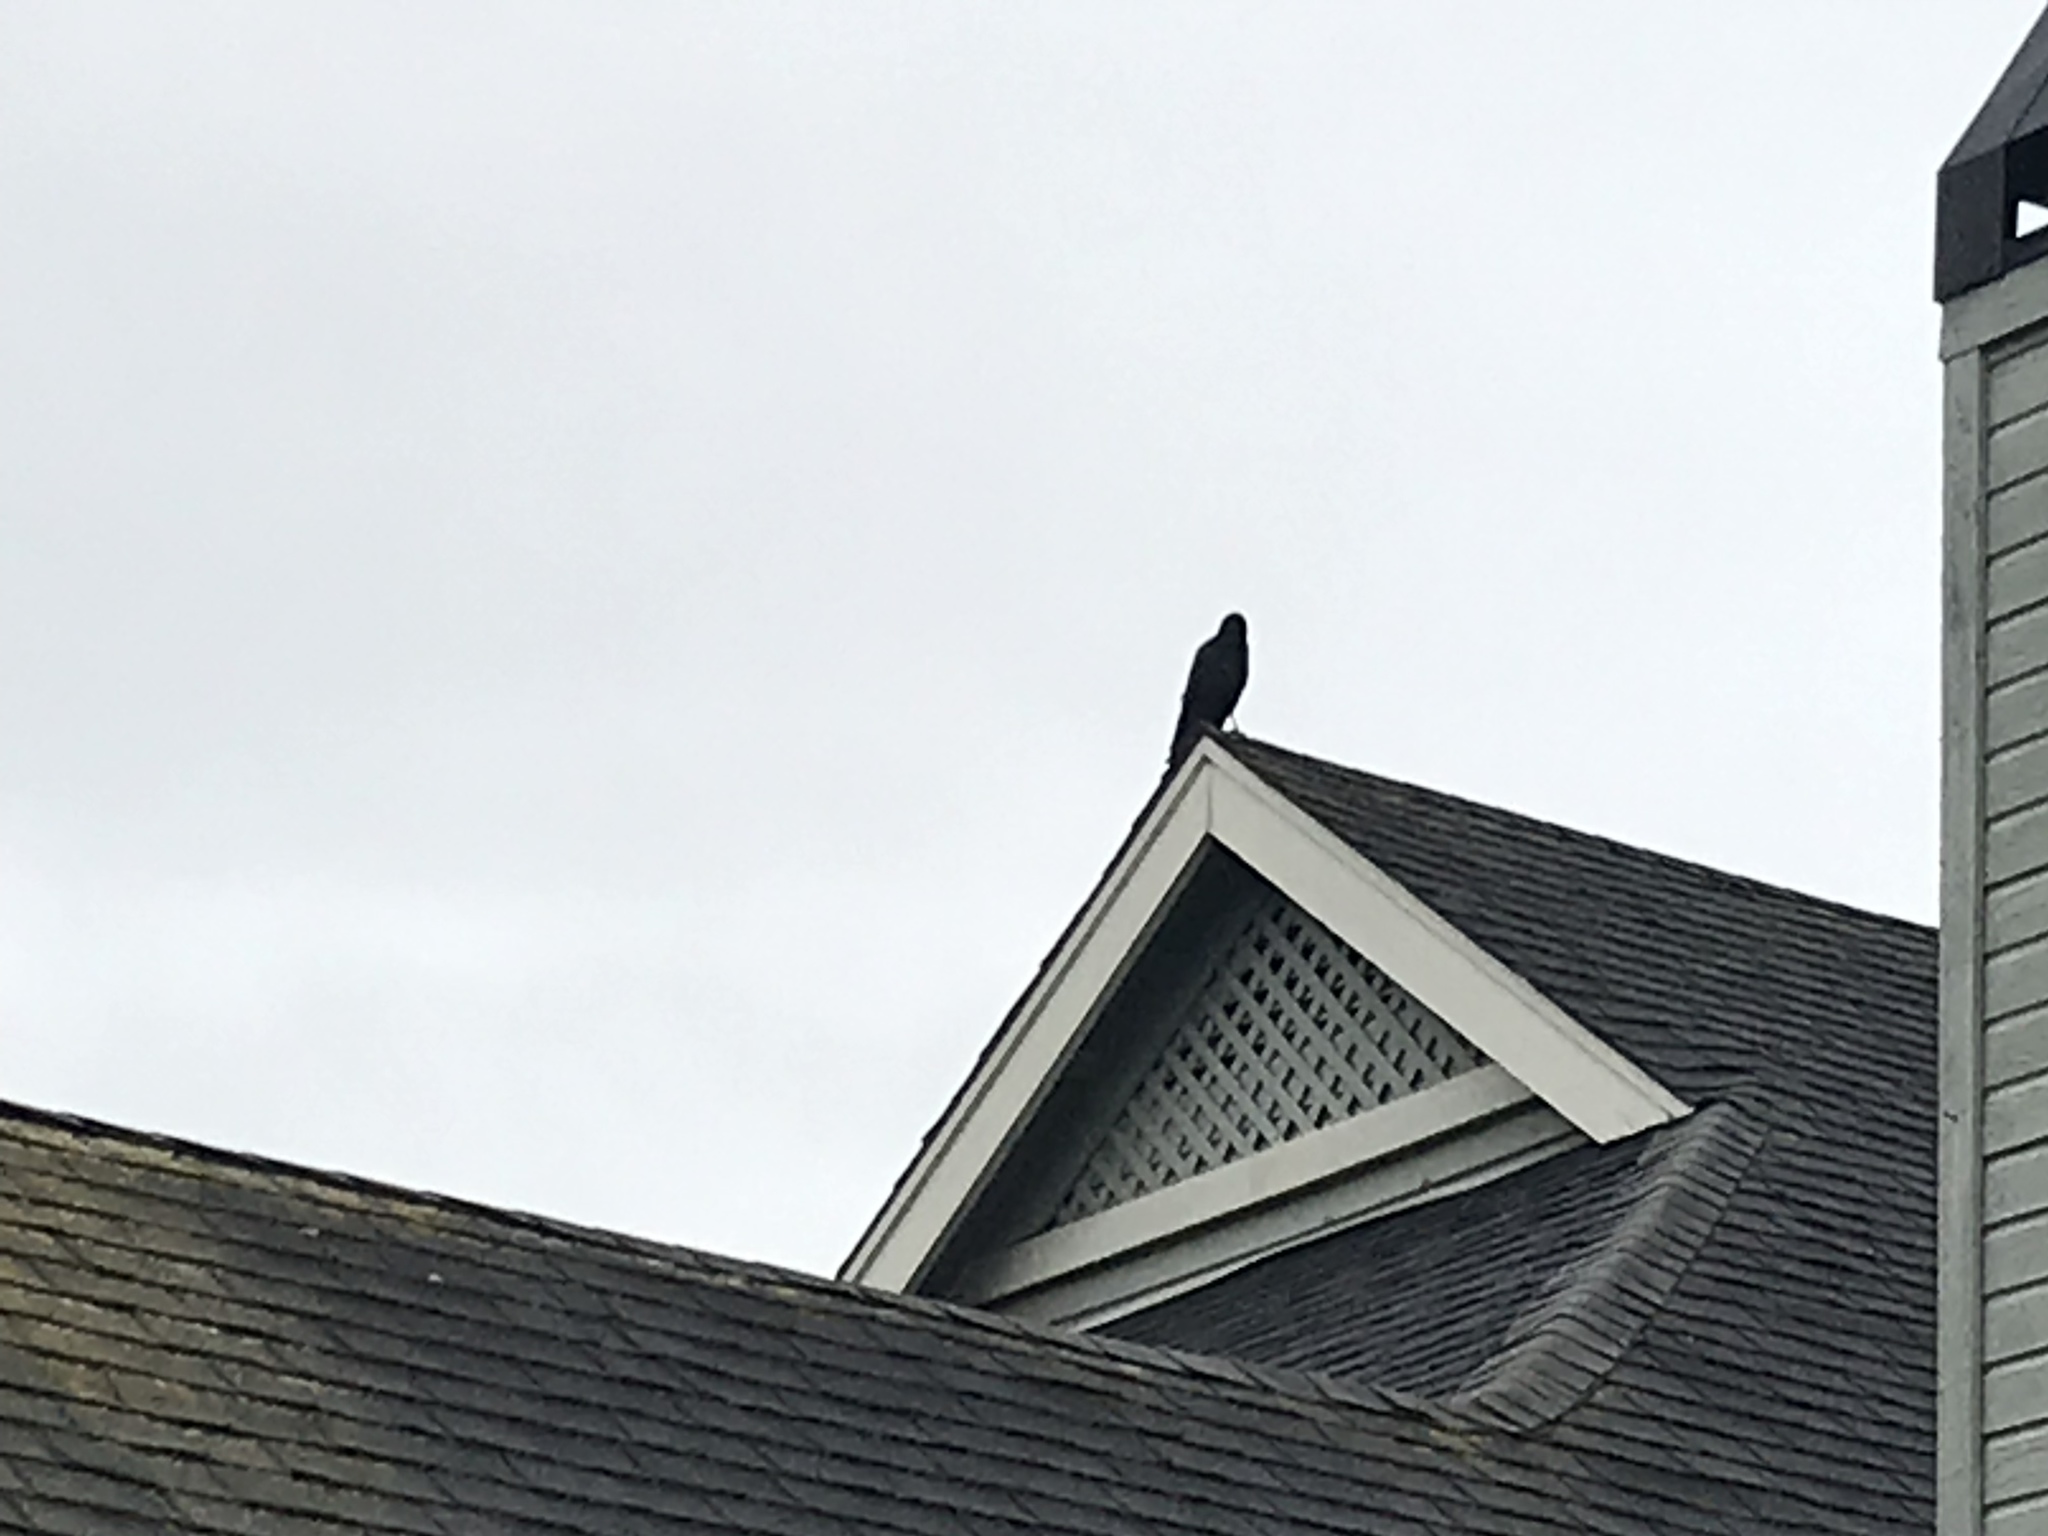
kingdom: Animalia
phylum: Chordata
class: Aves
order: Passeriformes
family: Corvidae
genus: Corvus
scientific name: Corvus brachyrhynchos
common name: American crow
